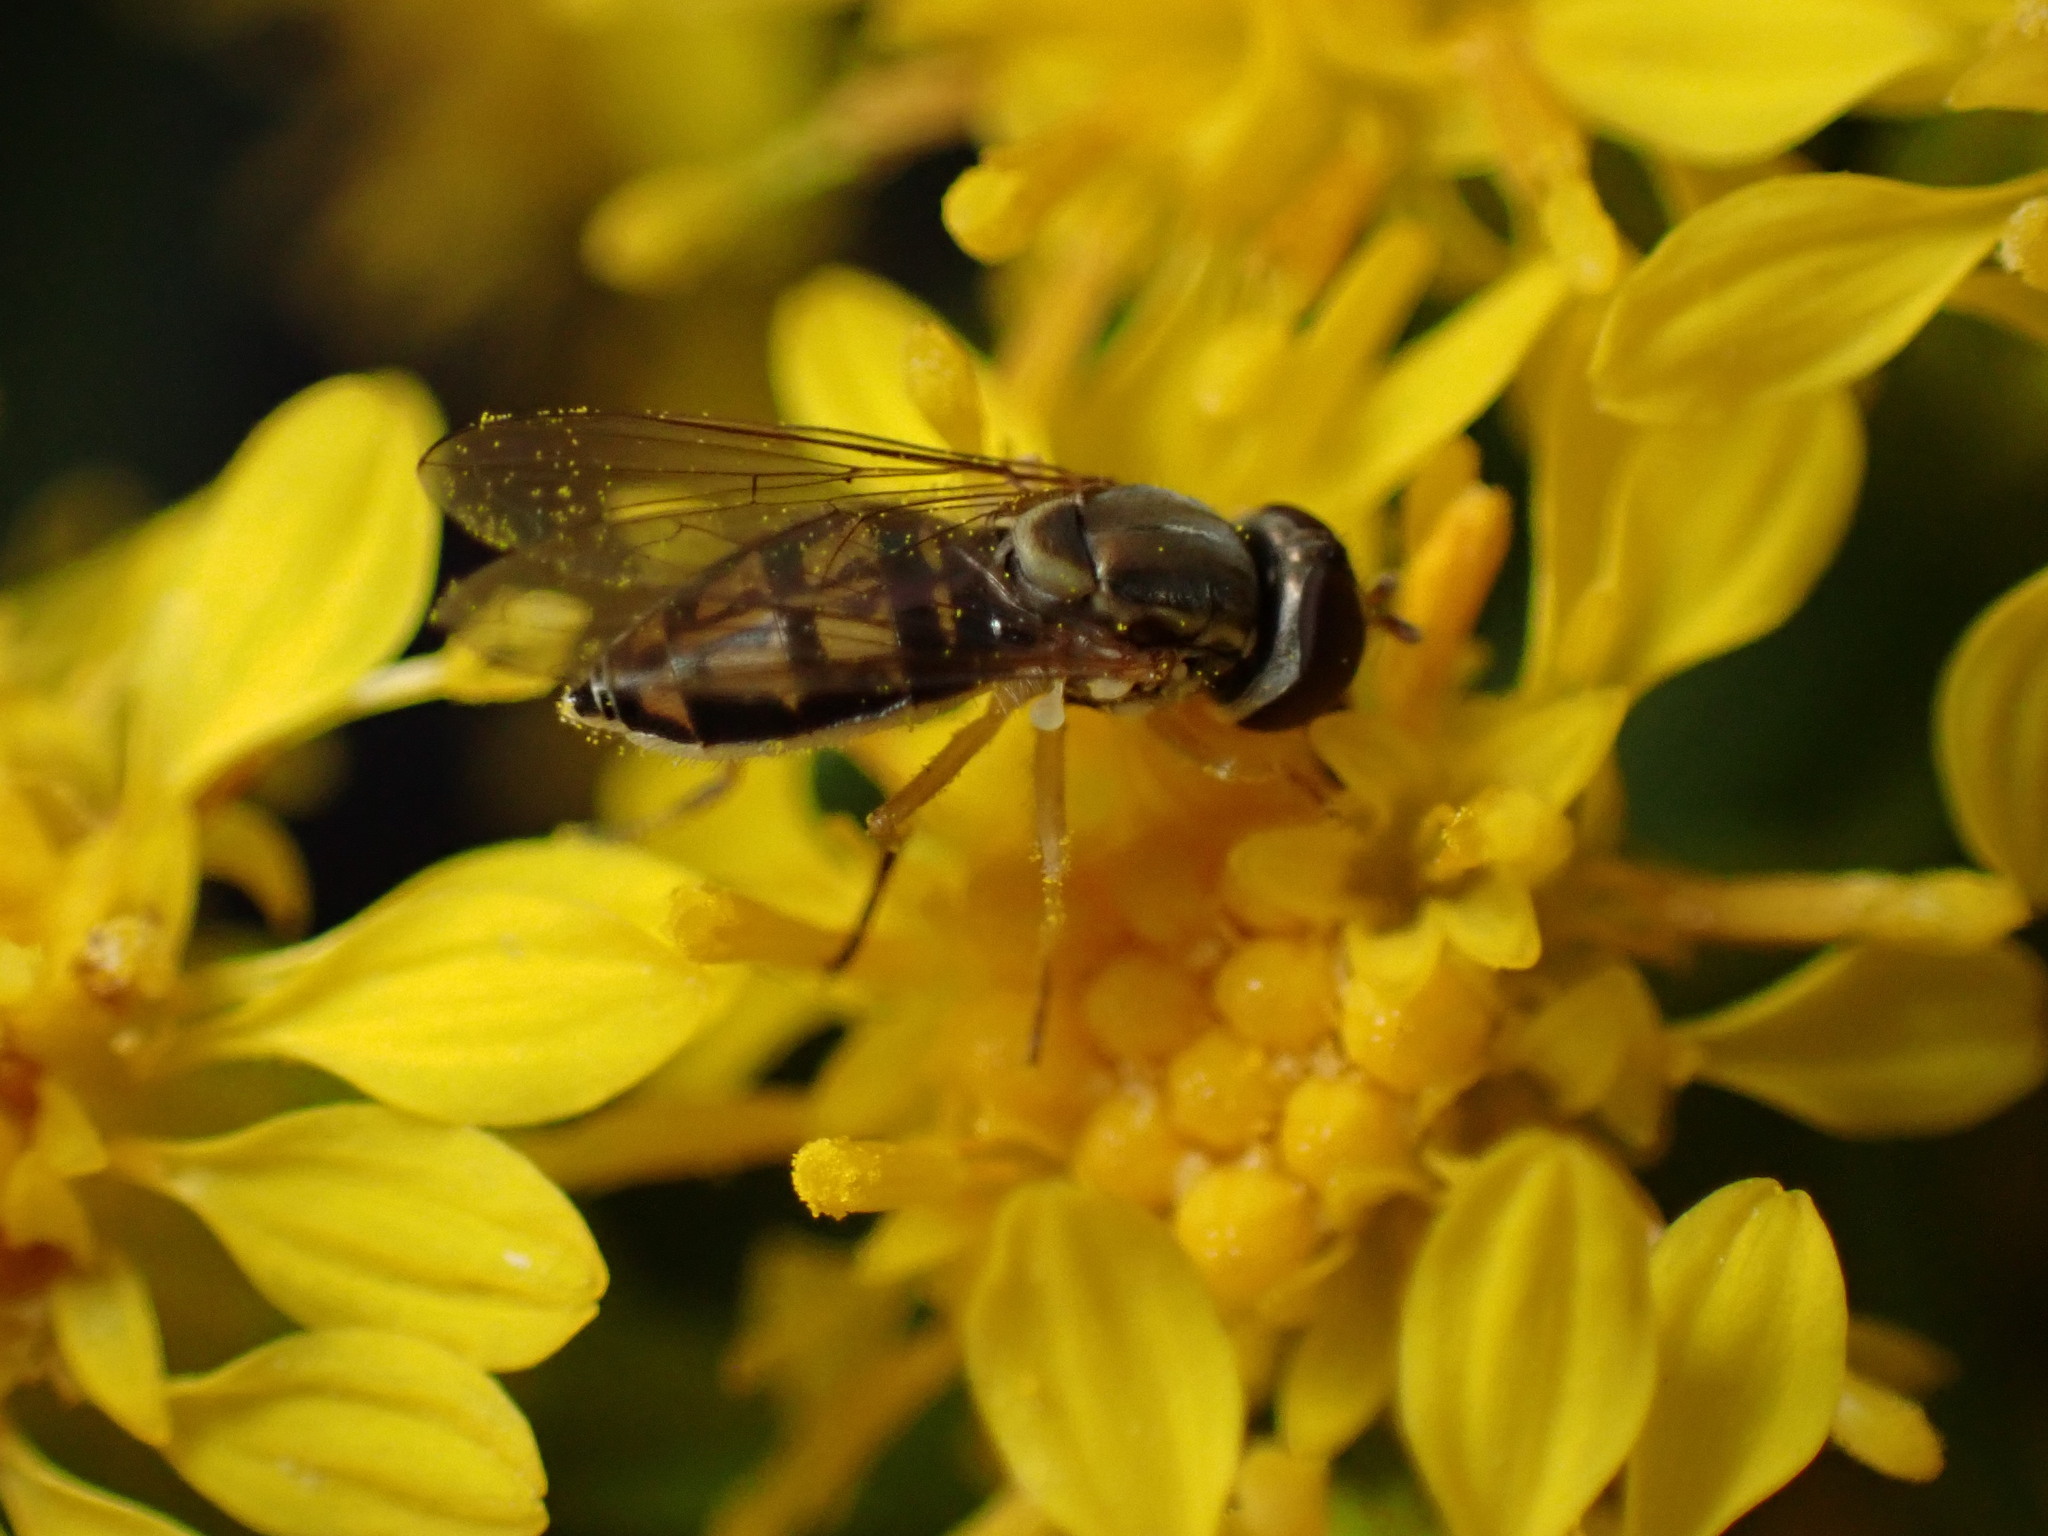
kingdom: Animalia
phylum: Arthropoda
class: Insecta
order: Diptera
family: Syrphidae
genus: Toxomerus
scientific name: Toxomerus marginatus
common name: Syrphid fly
